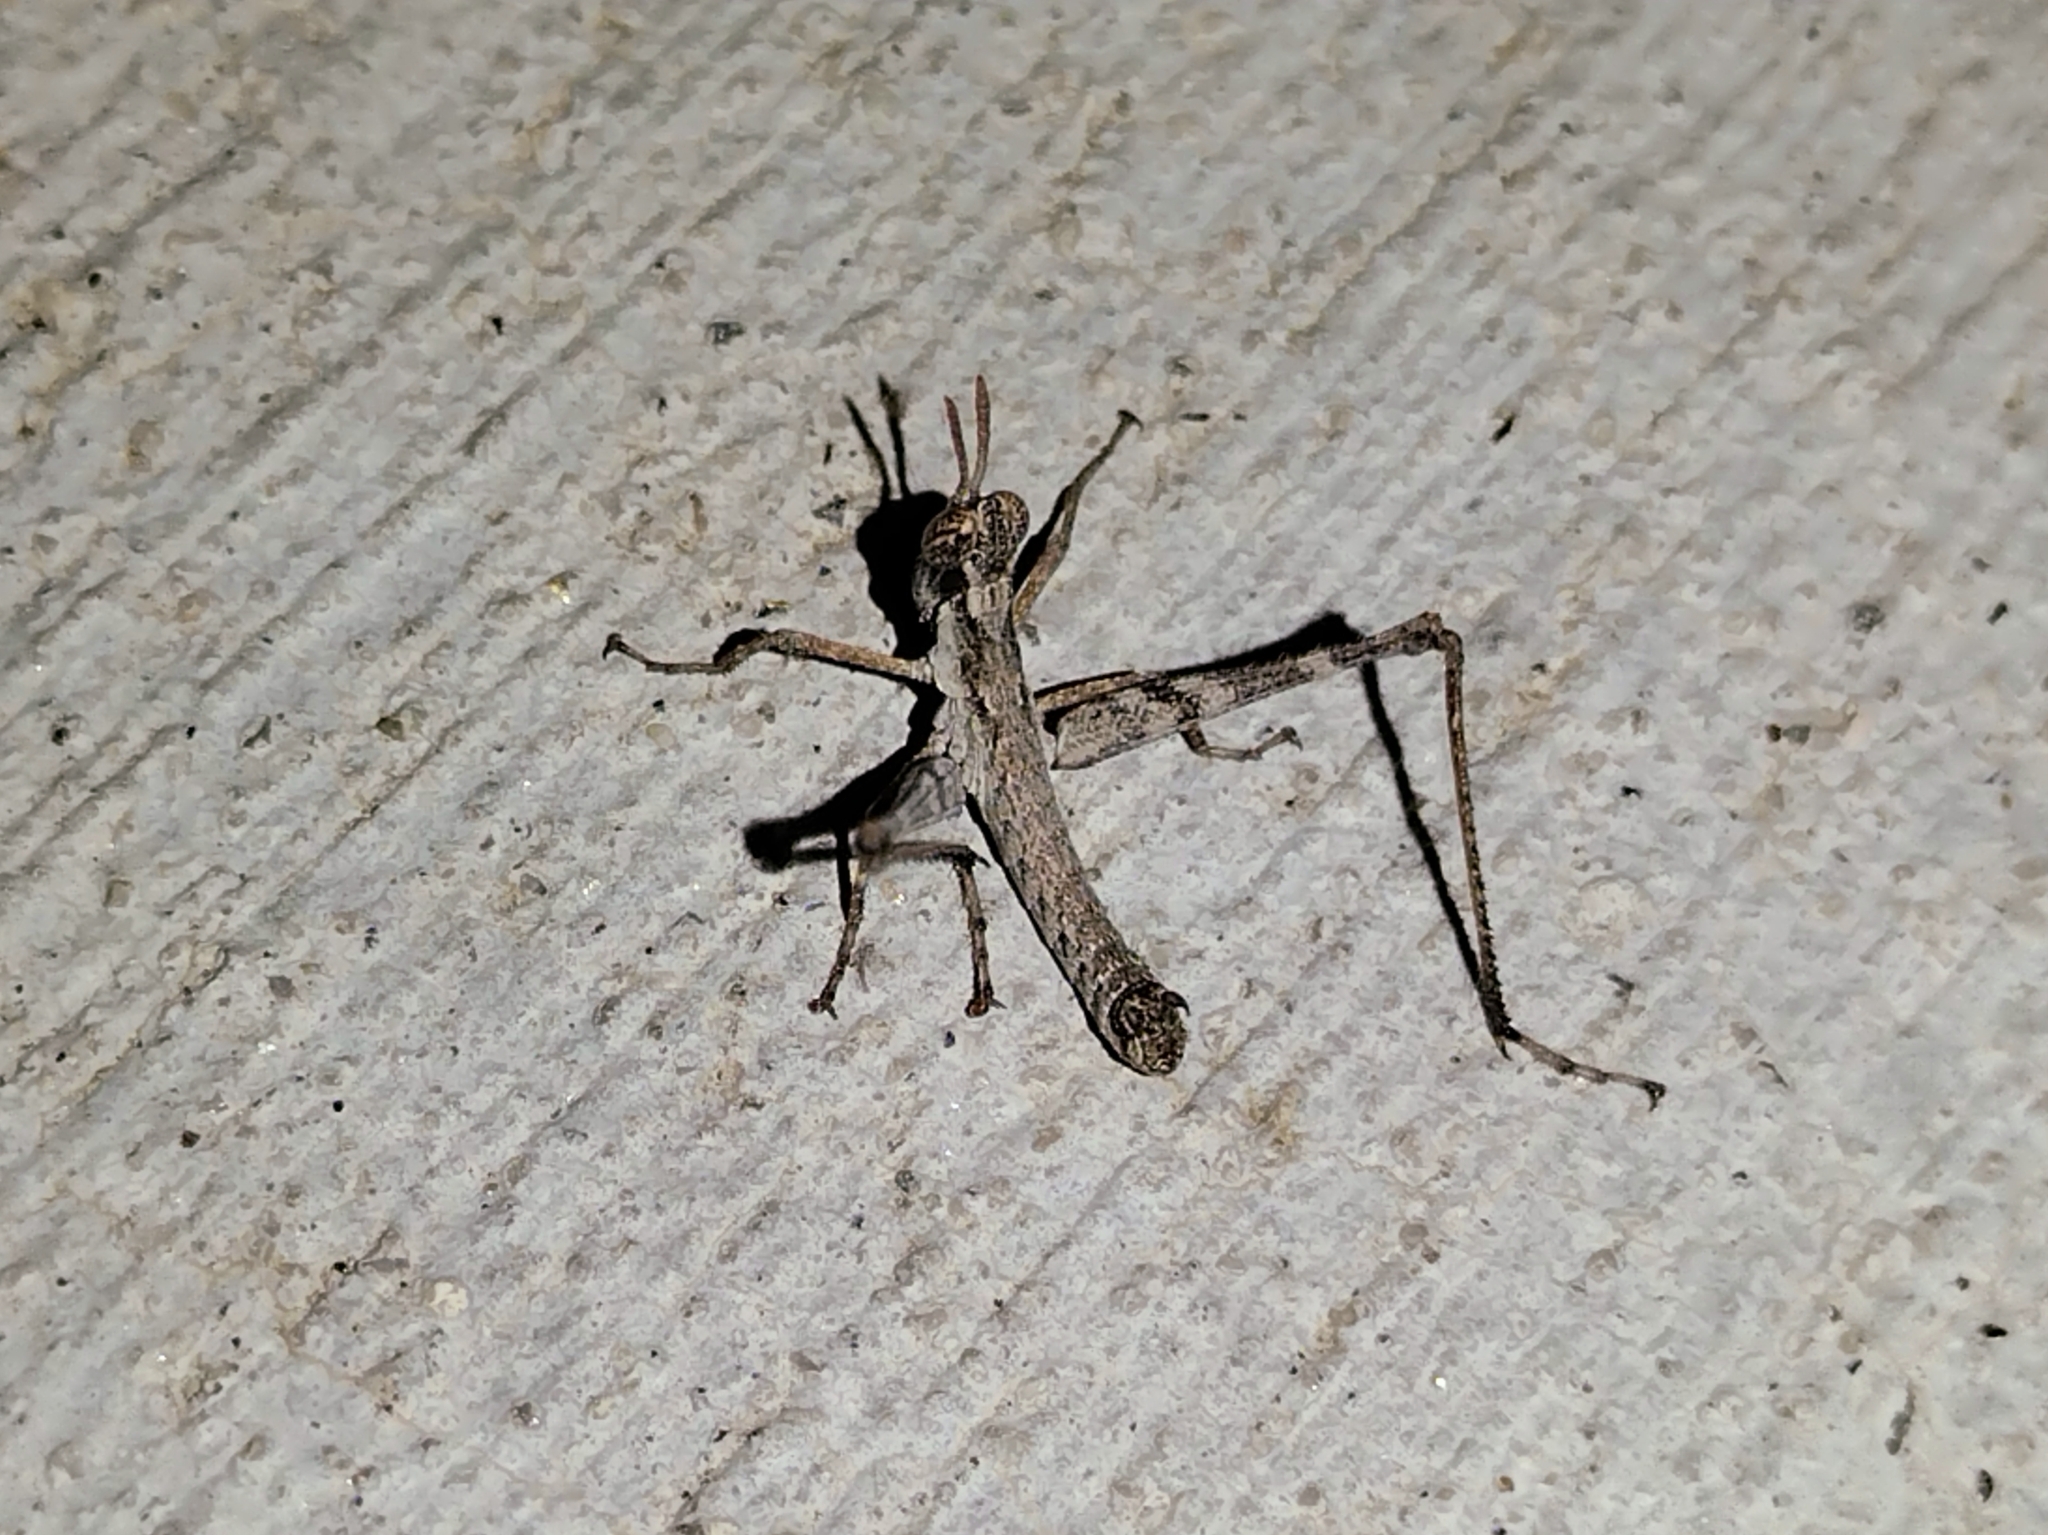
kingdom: Animalia
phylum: Arthropoda
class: Insecta
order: Orthoptera
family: Eumastacidae
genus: Morsea
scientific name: Morsea californica
